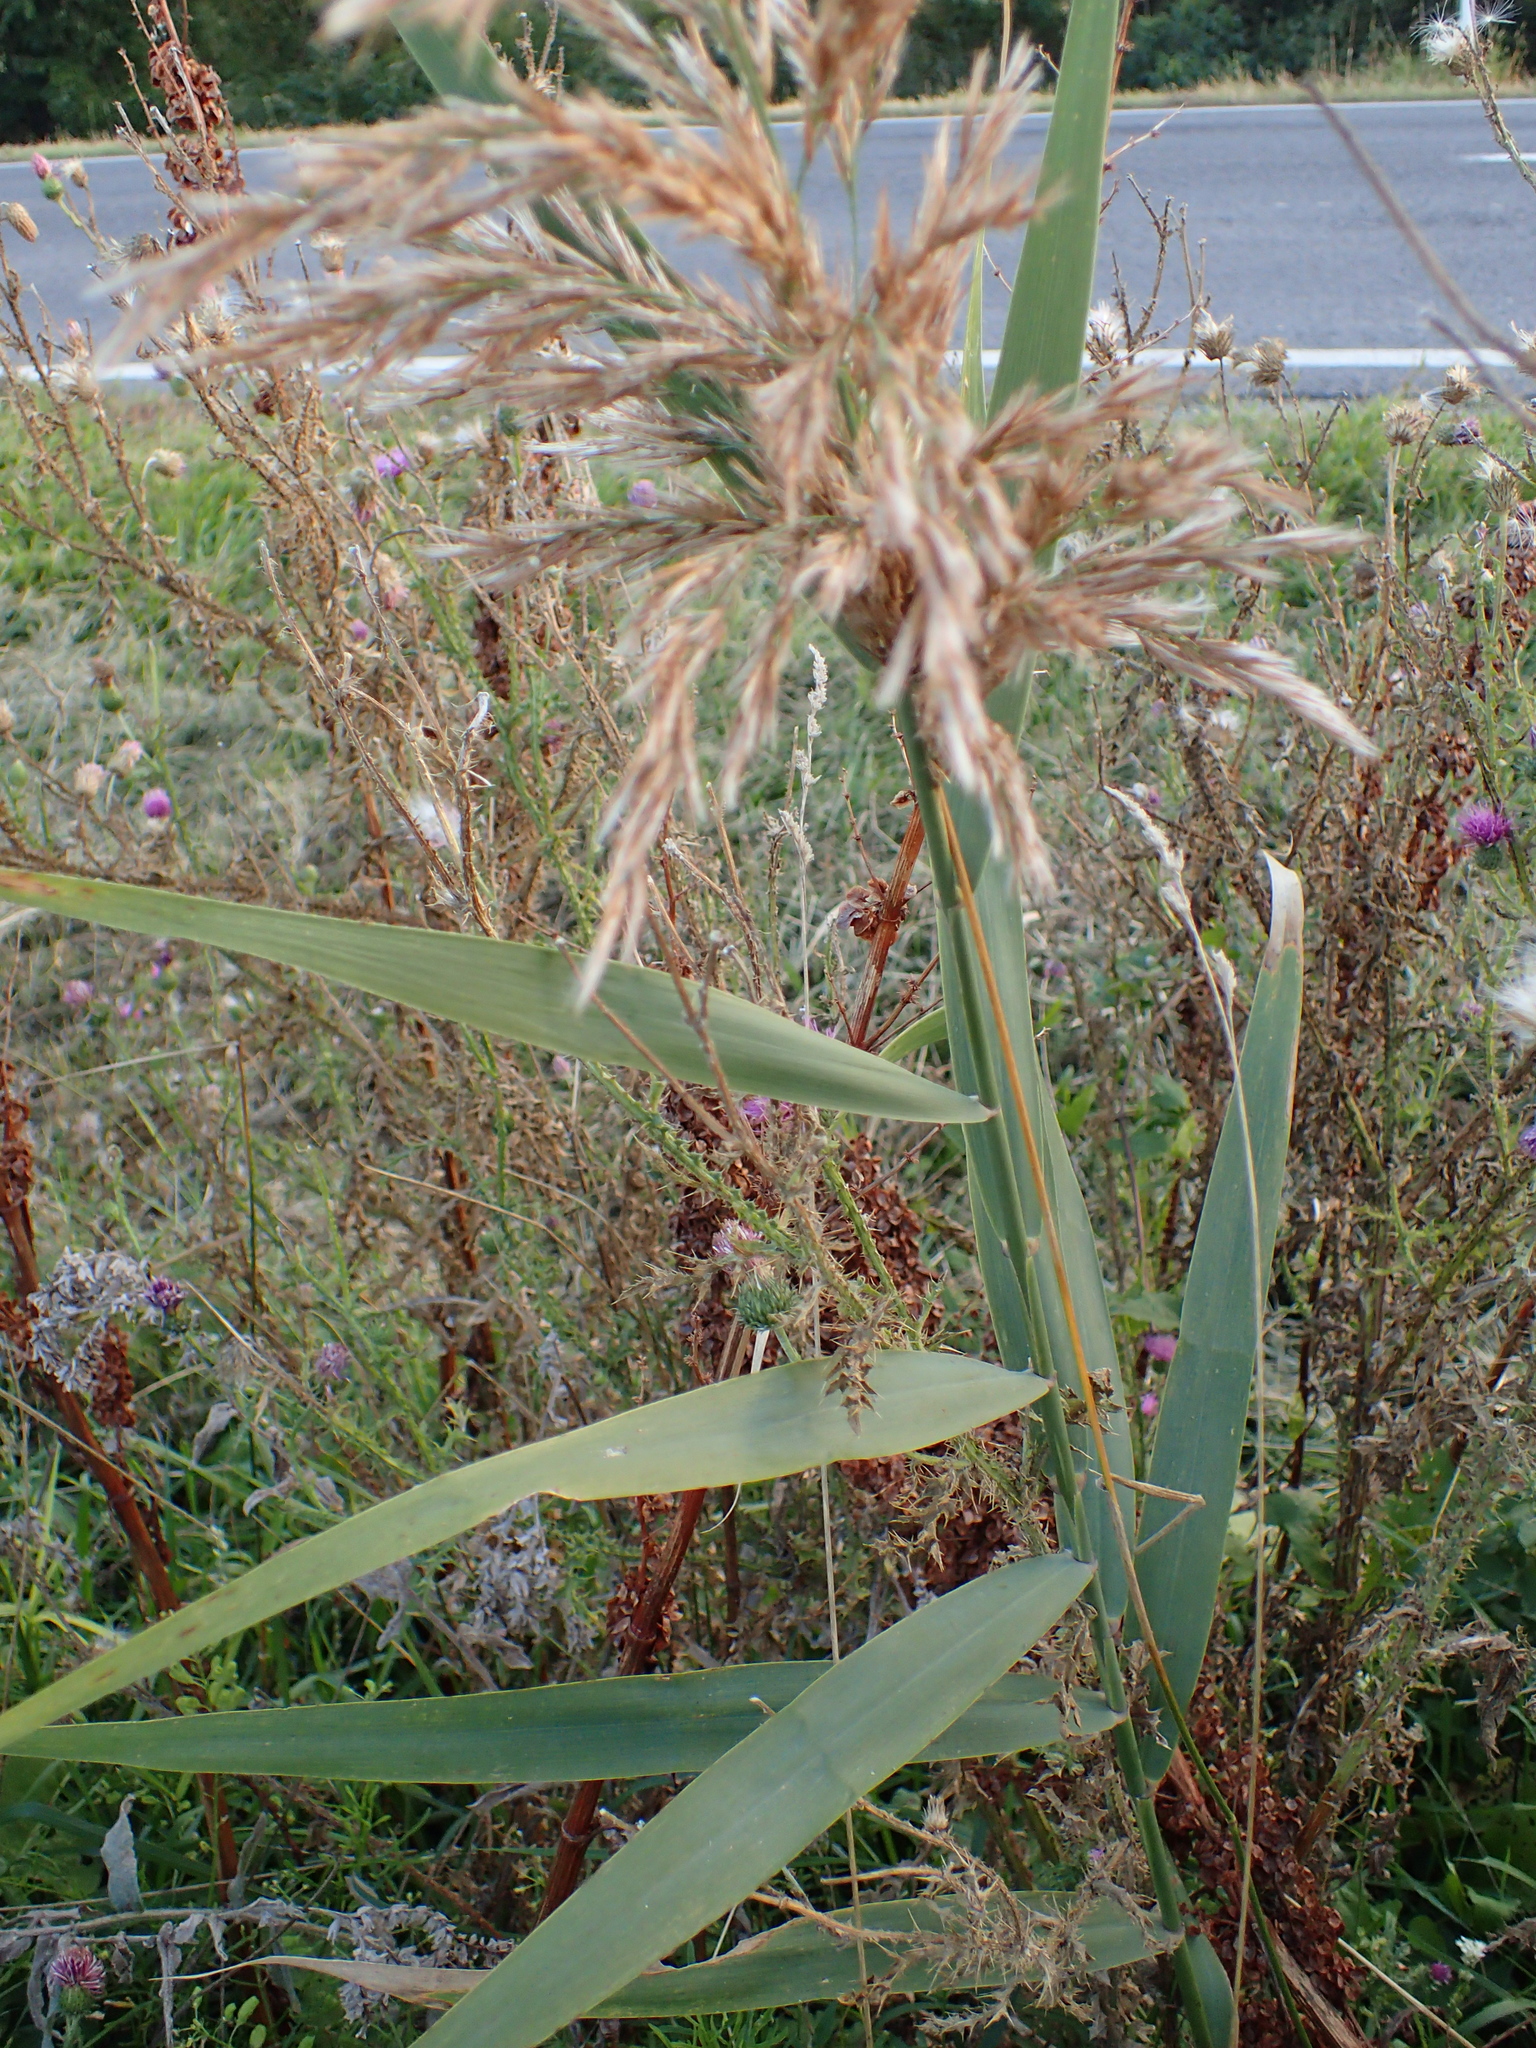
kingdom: Plantae
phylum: Tracheophyta
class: Liliopsida
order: Poales
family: Poaceae
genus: Phragmites
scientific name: Phragmites australis
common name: Common reed
